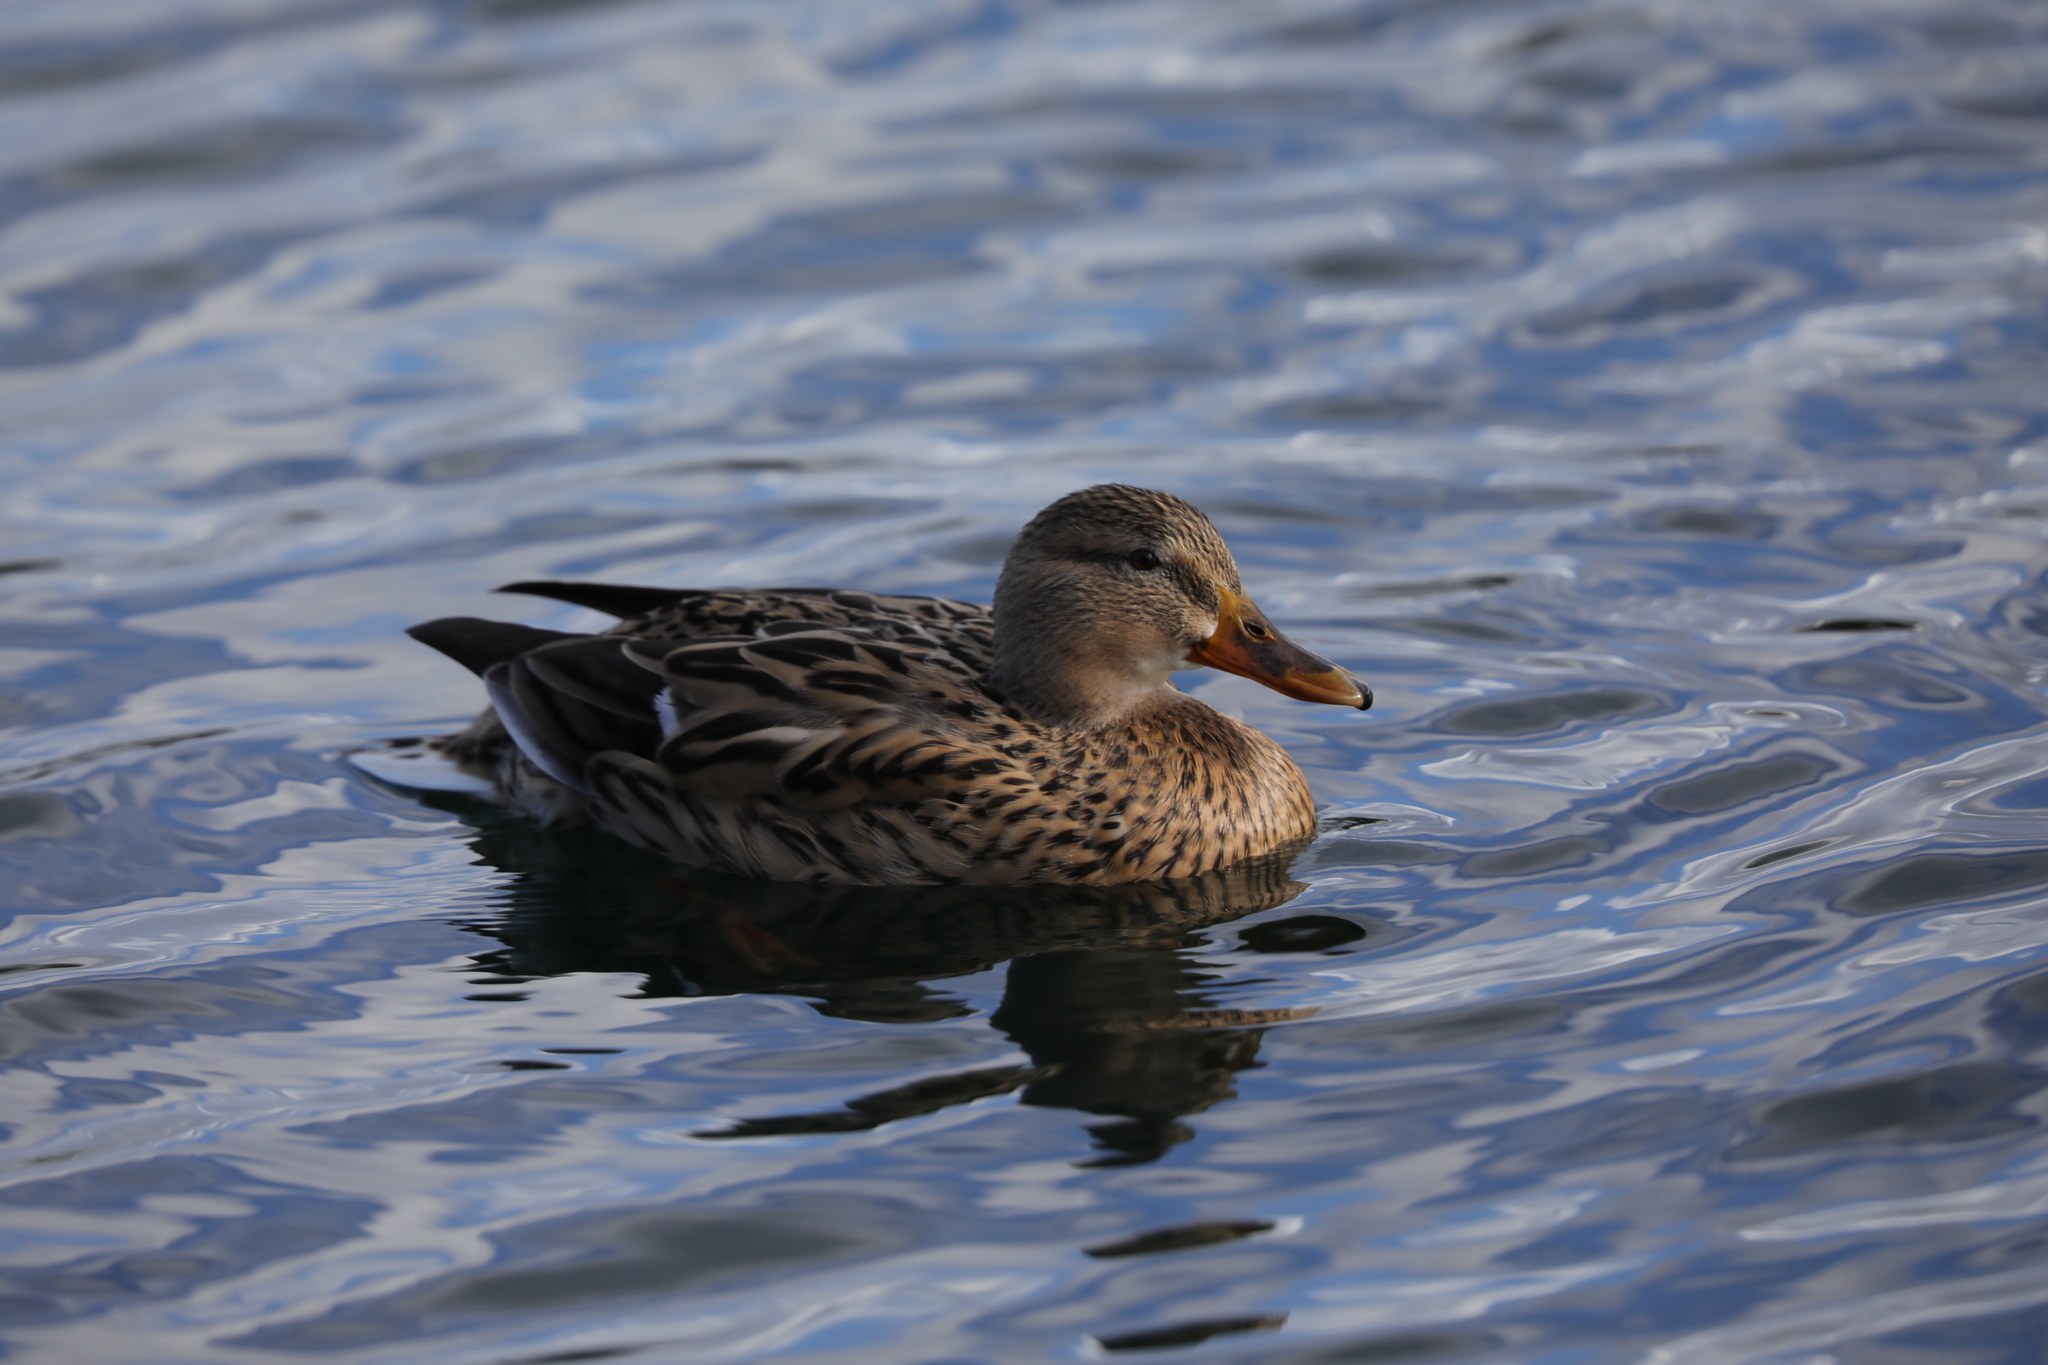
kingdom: Animalia
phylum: Chordata
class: Aves
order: Anseriformes
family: Anatidae
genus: Anas
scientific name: Anas platyrhynchos
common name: Mallard
